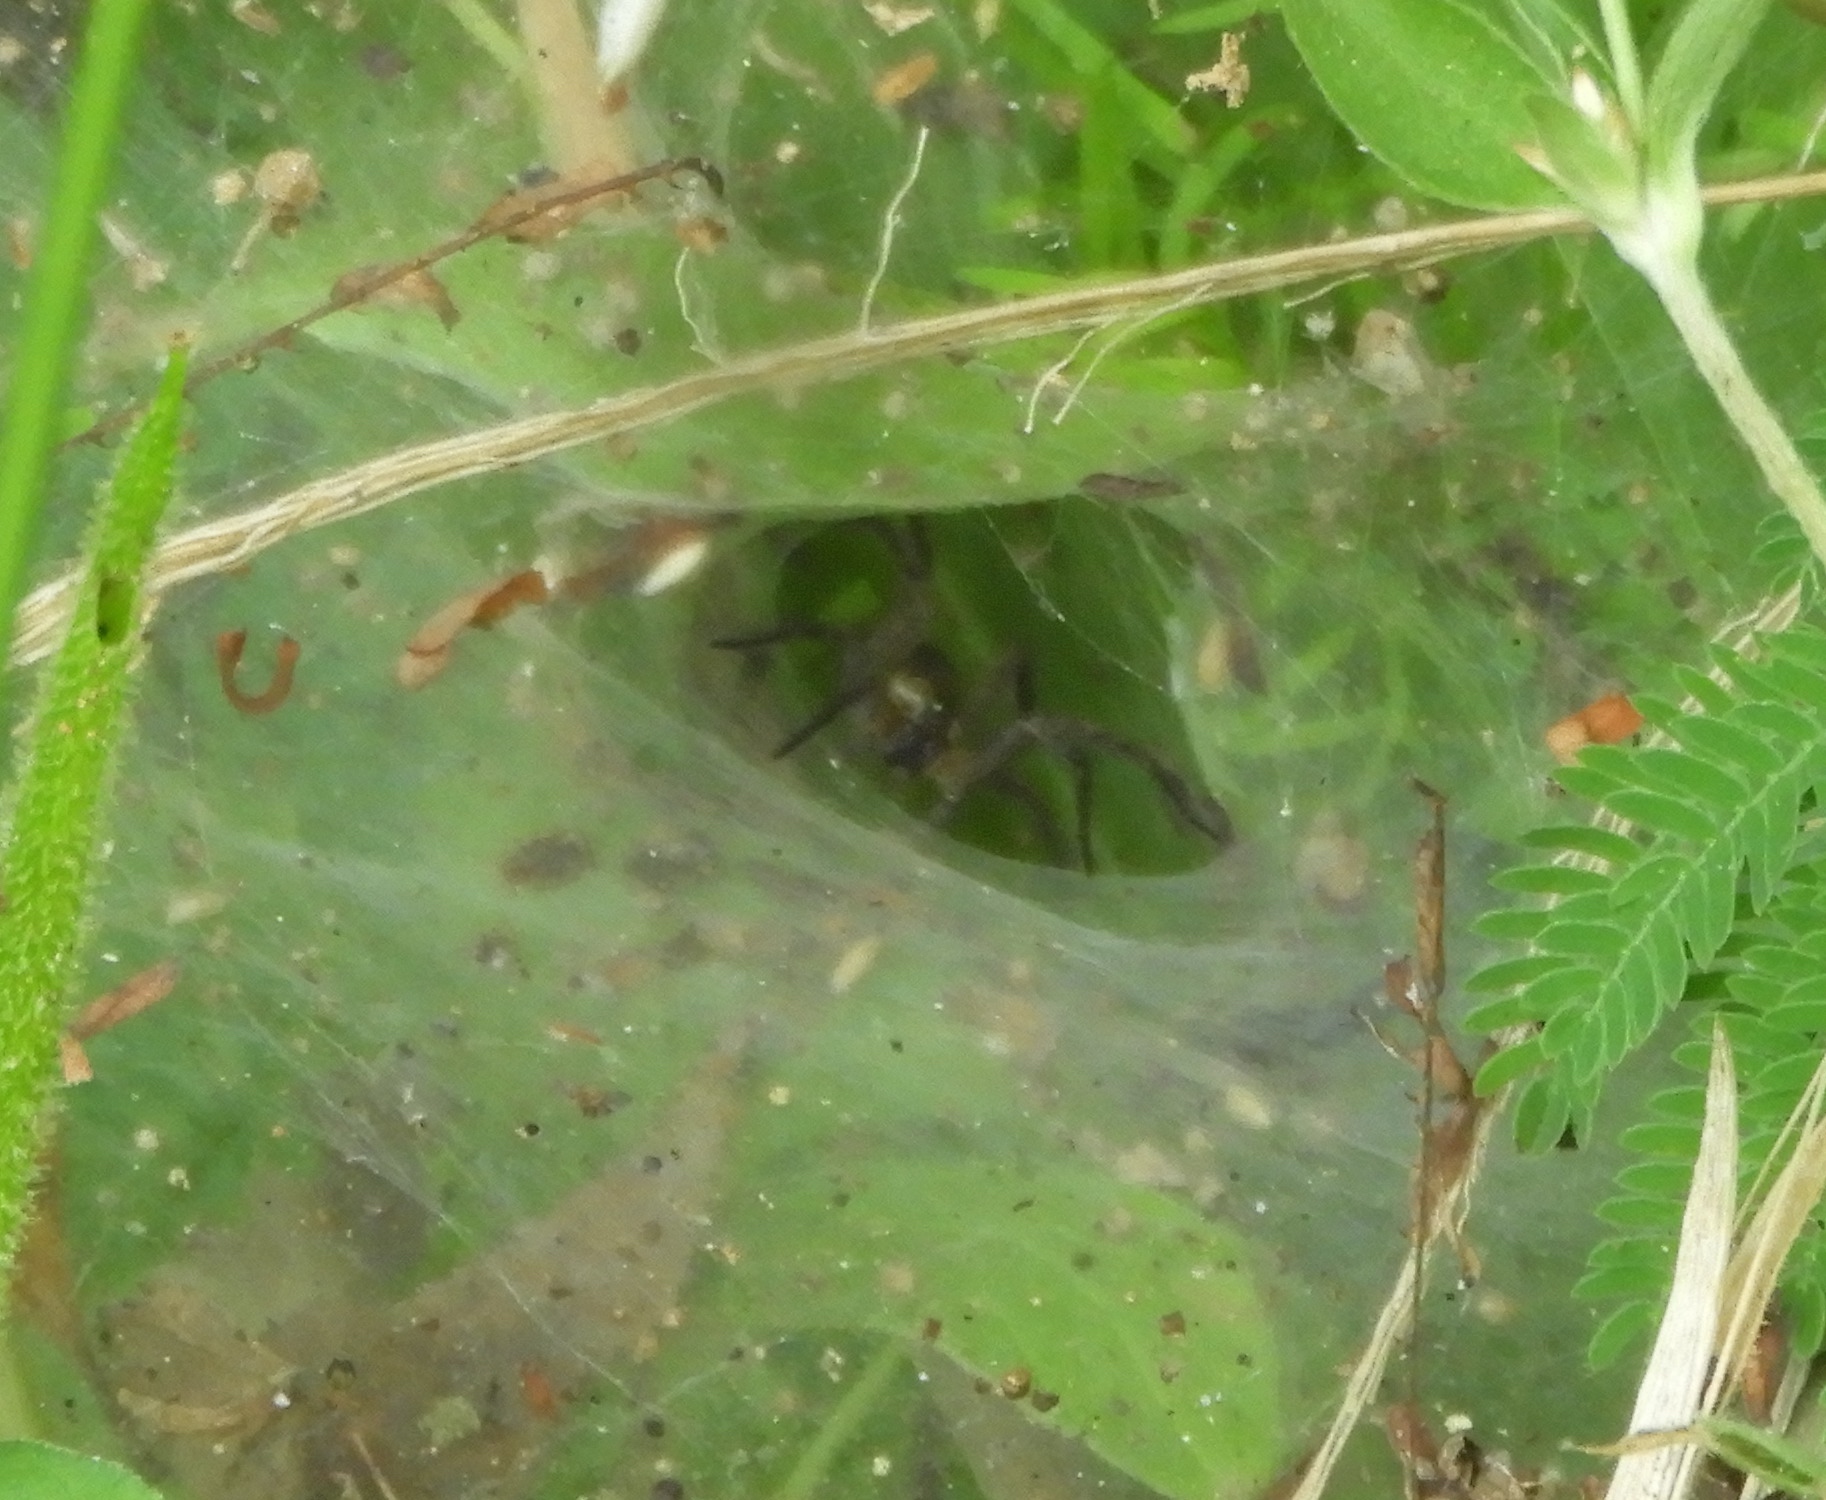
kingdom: Animalia
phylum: Arthropoda
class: Arachnida
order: Araneae
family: Lycosidae
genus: Sosippus
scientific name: Sosippus californicus
